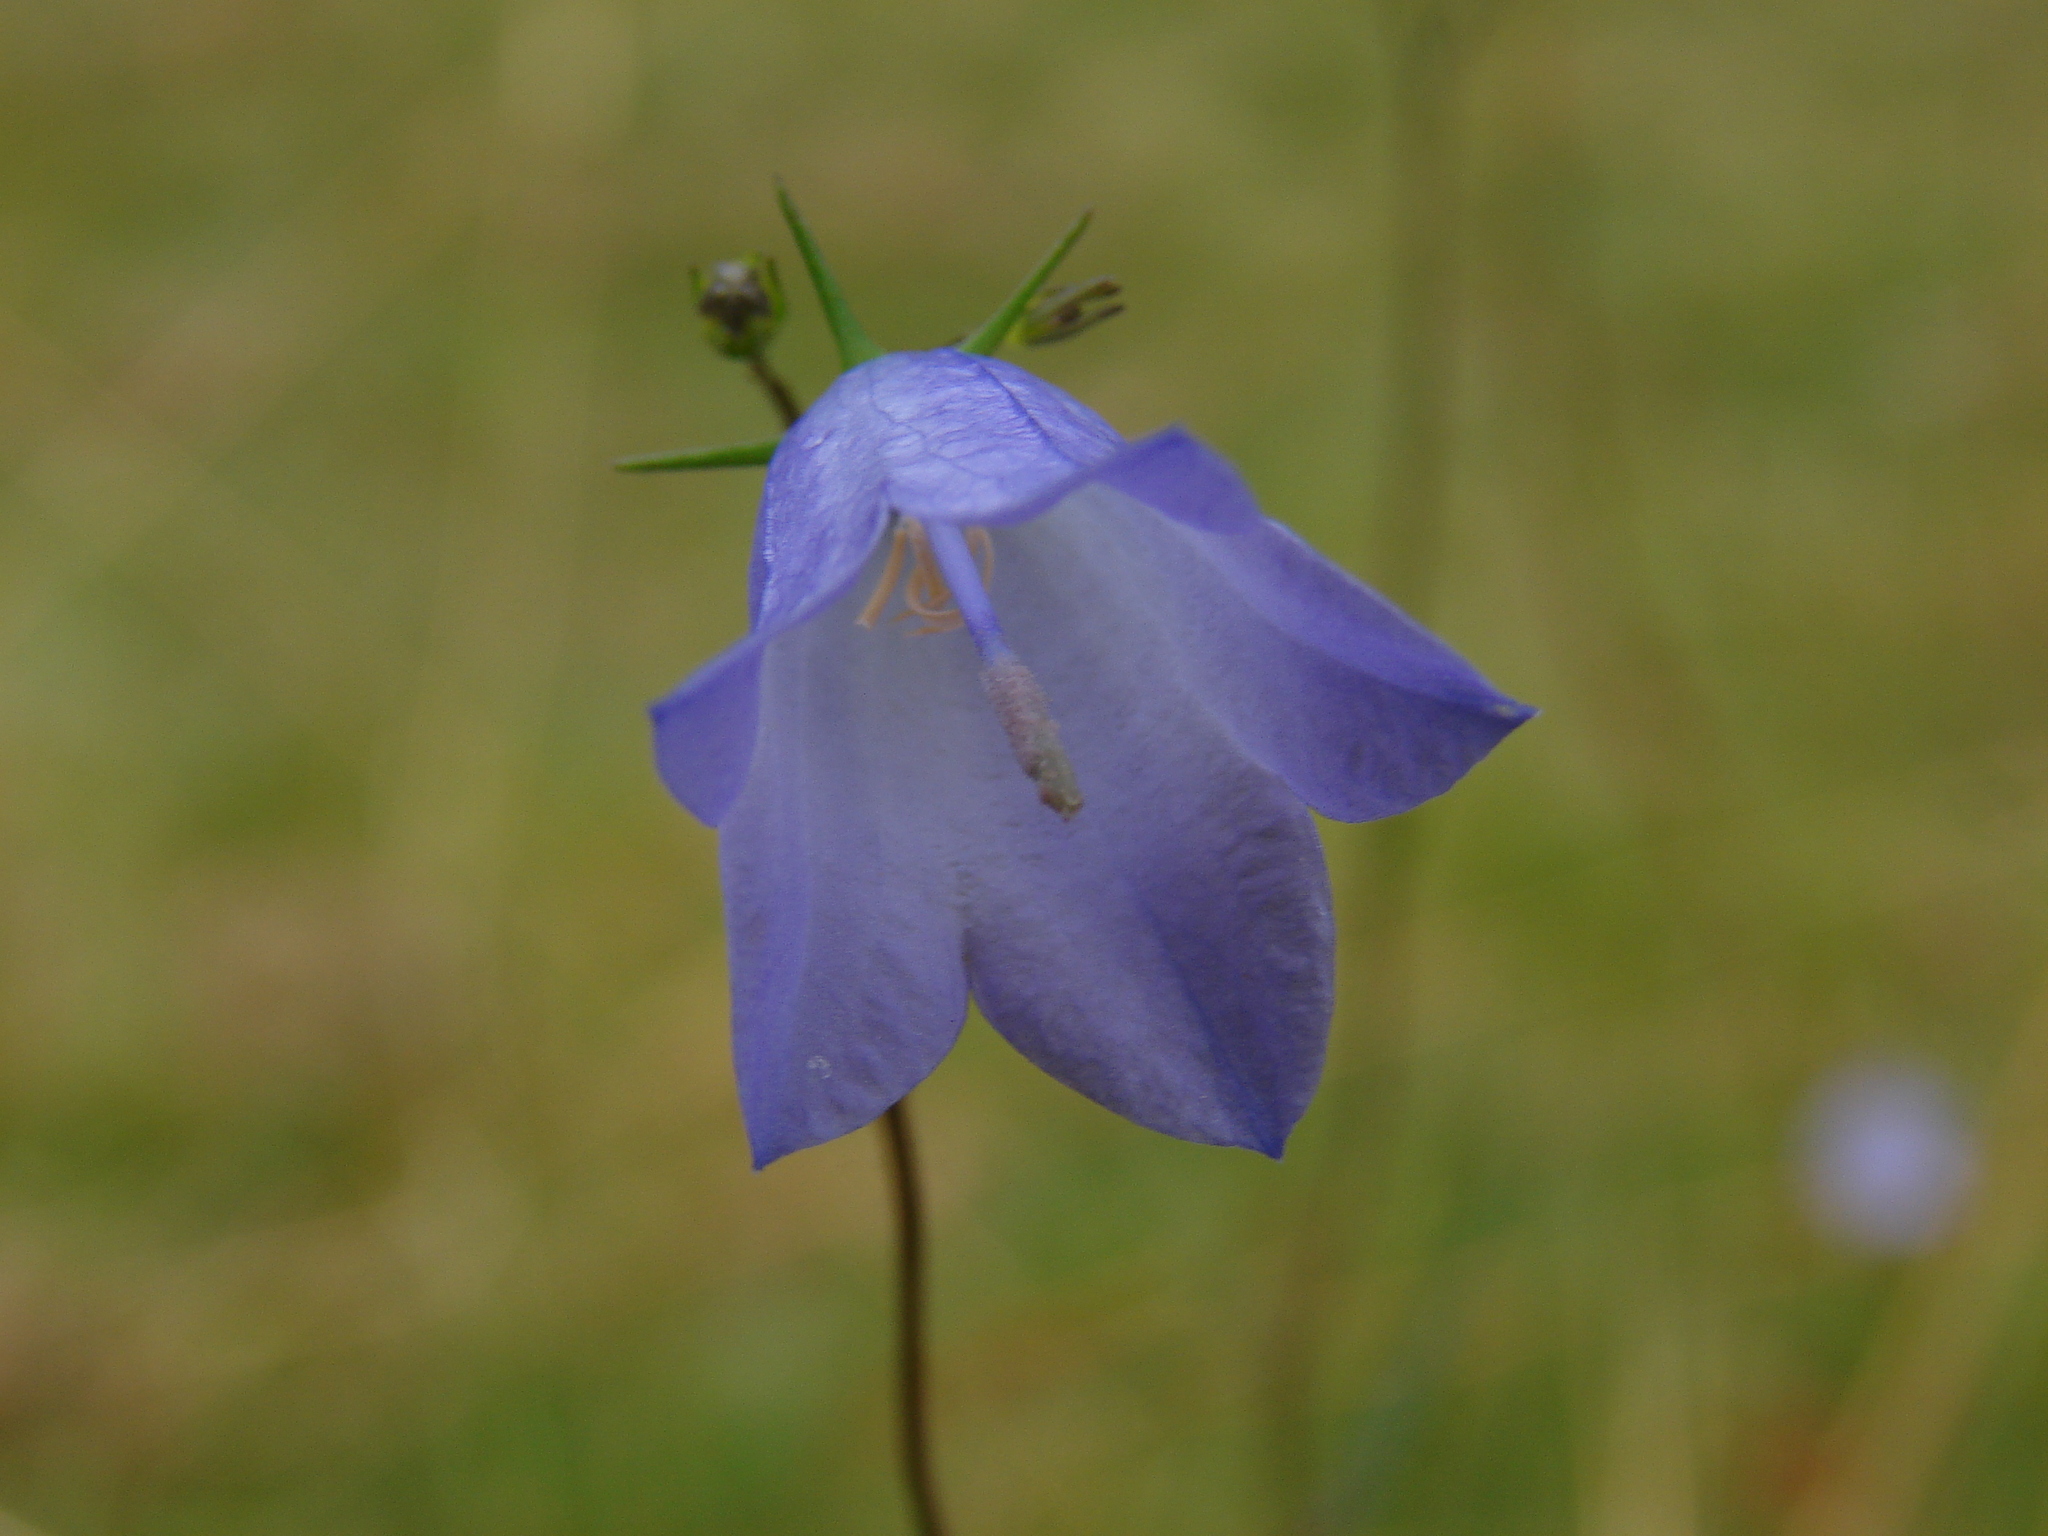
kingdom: Plantae
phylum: Tracheophyta
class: Magnoliopsida
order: Asterales
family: Campanulaceae
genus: Campanula
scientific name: Campanula rotundifolia
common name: Harebell
